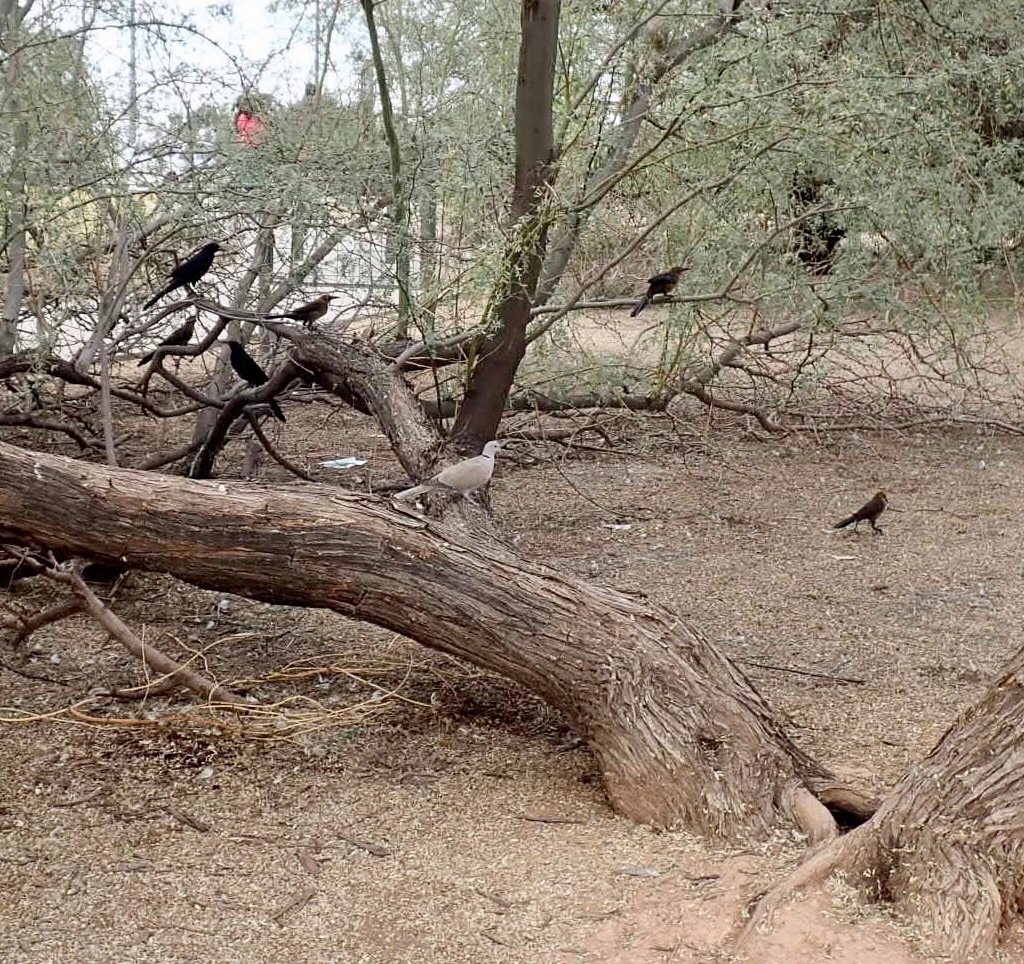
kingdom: Animalia
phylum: Chordata
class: Aves
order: Passeriformes
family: Icteridae
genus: Quiscalus
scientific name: Quiscalus mexicanus
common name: Great-tailed grackle
